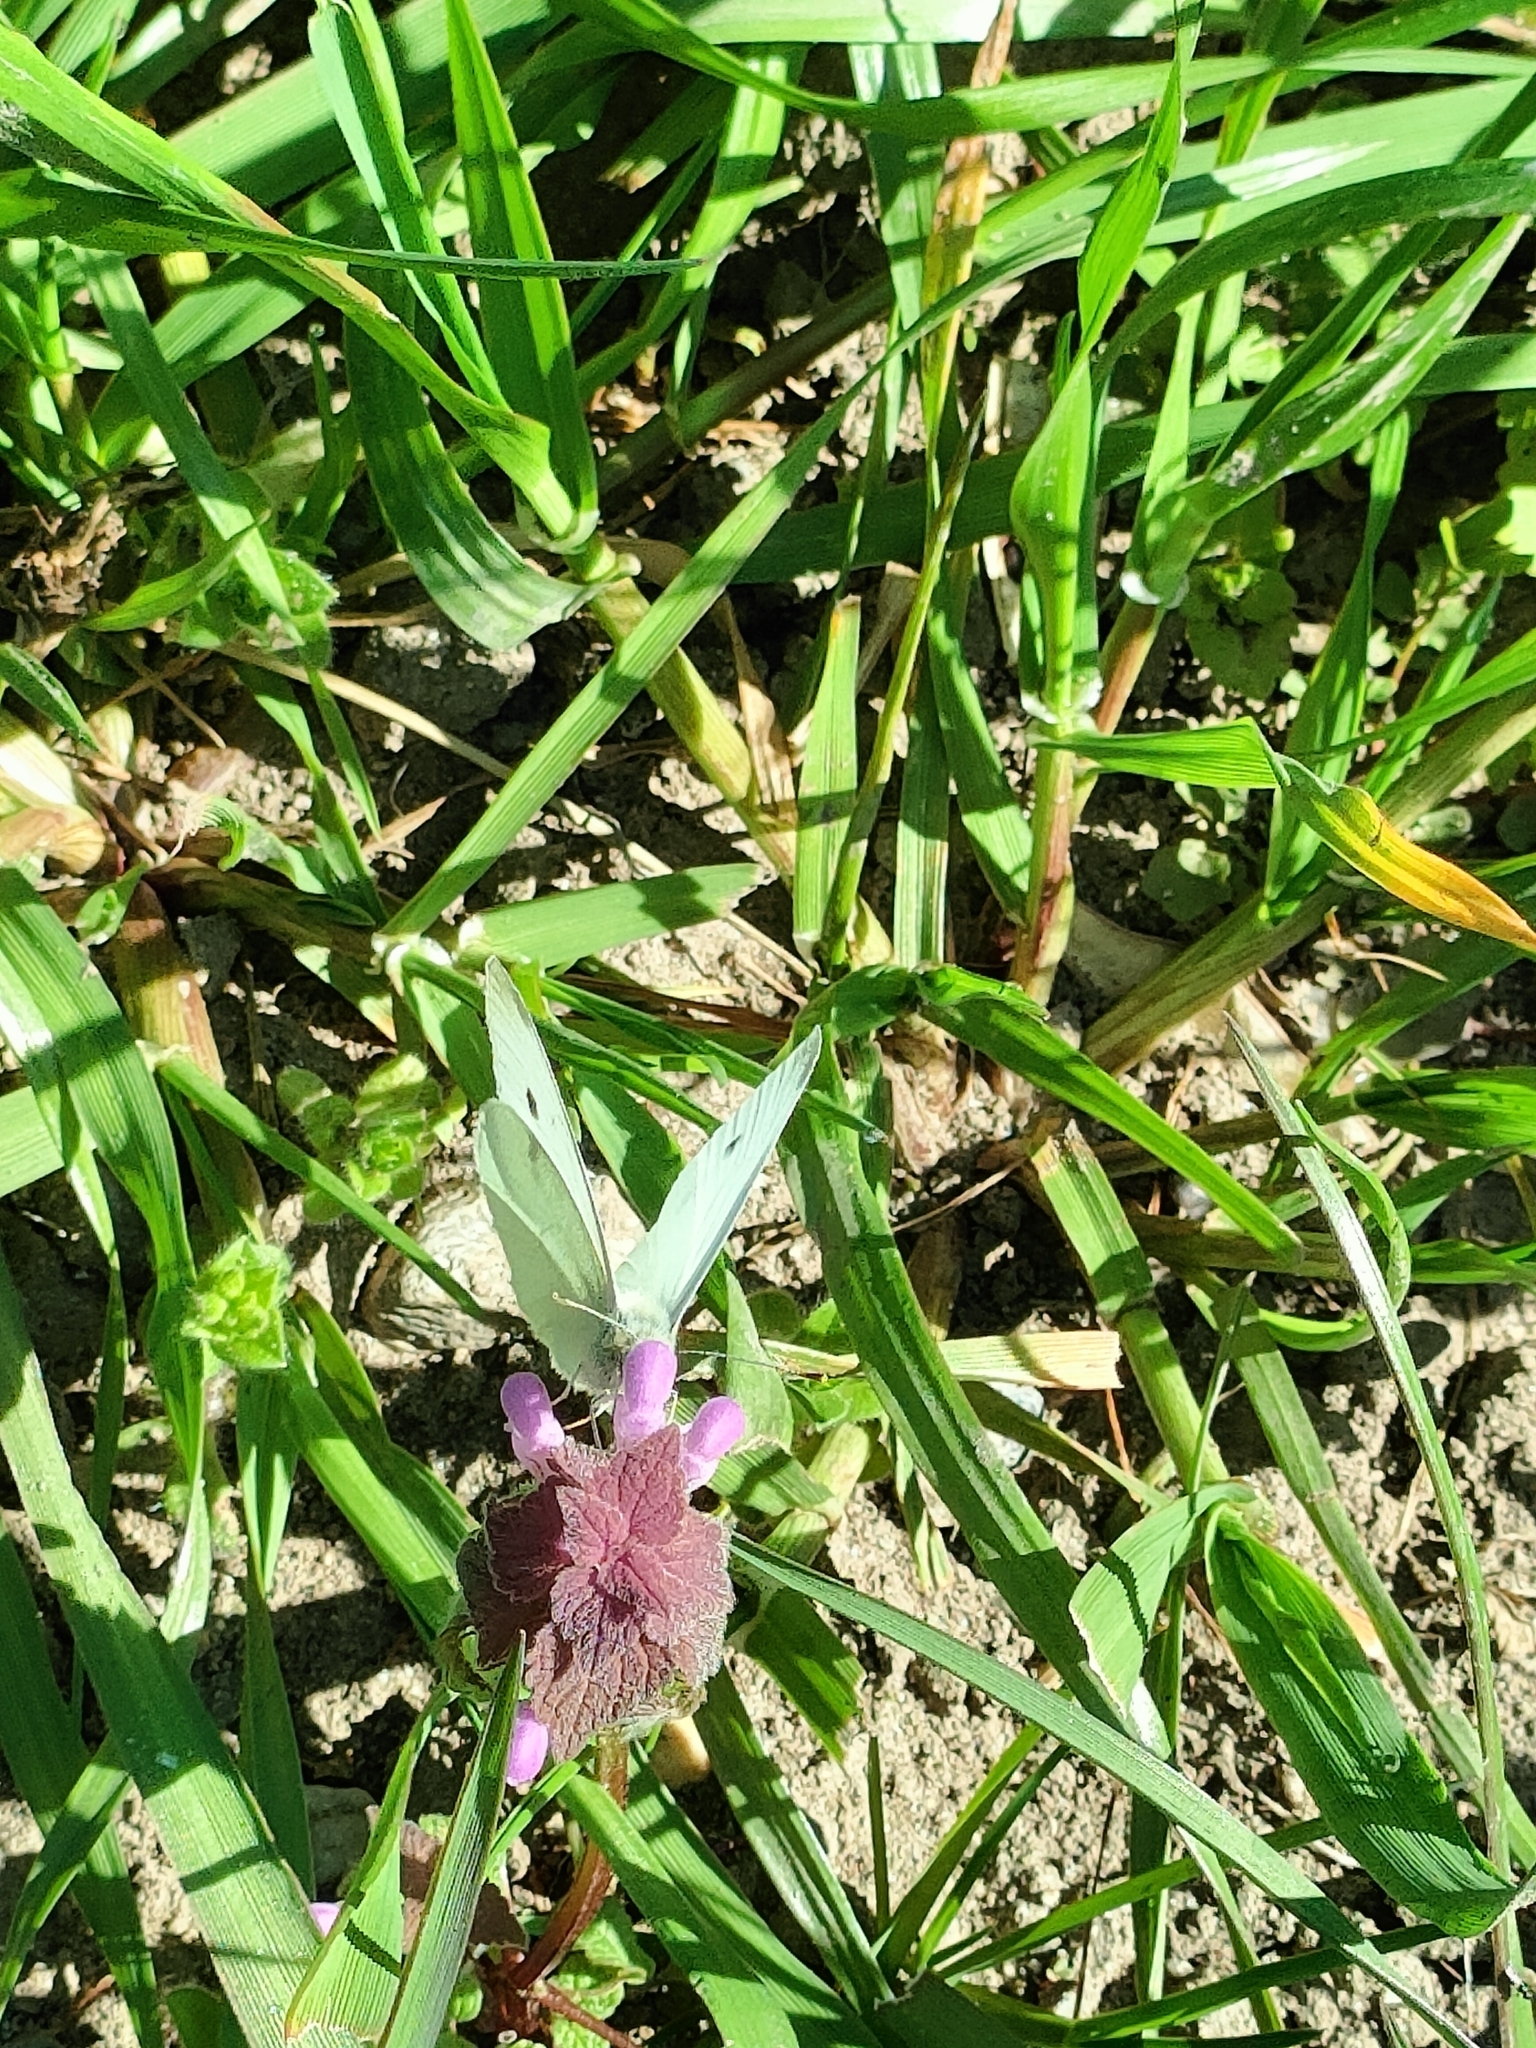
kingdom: Animalia
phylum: Arthropoda
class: Insecta
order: Lepidoptera
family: Pieridae
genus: Pieris
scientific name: Pieris rapae
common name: Small white
